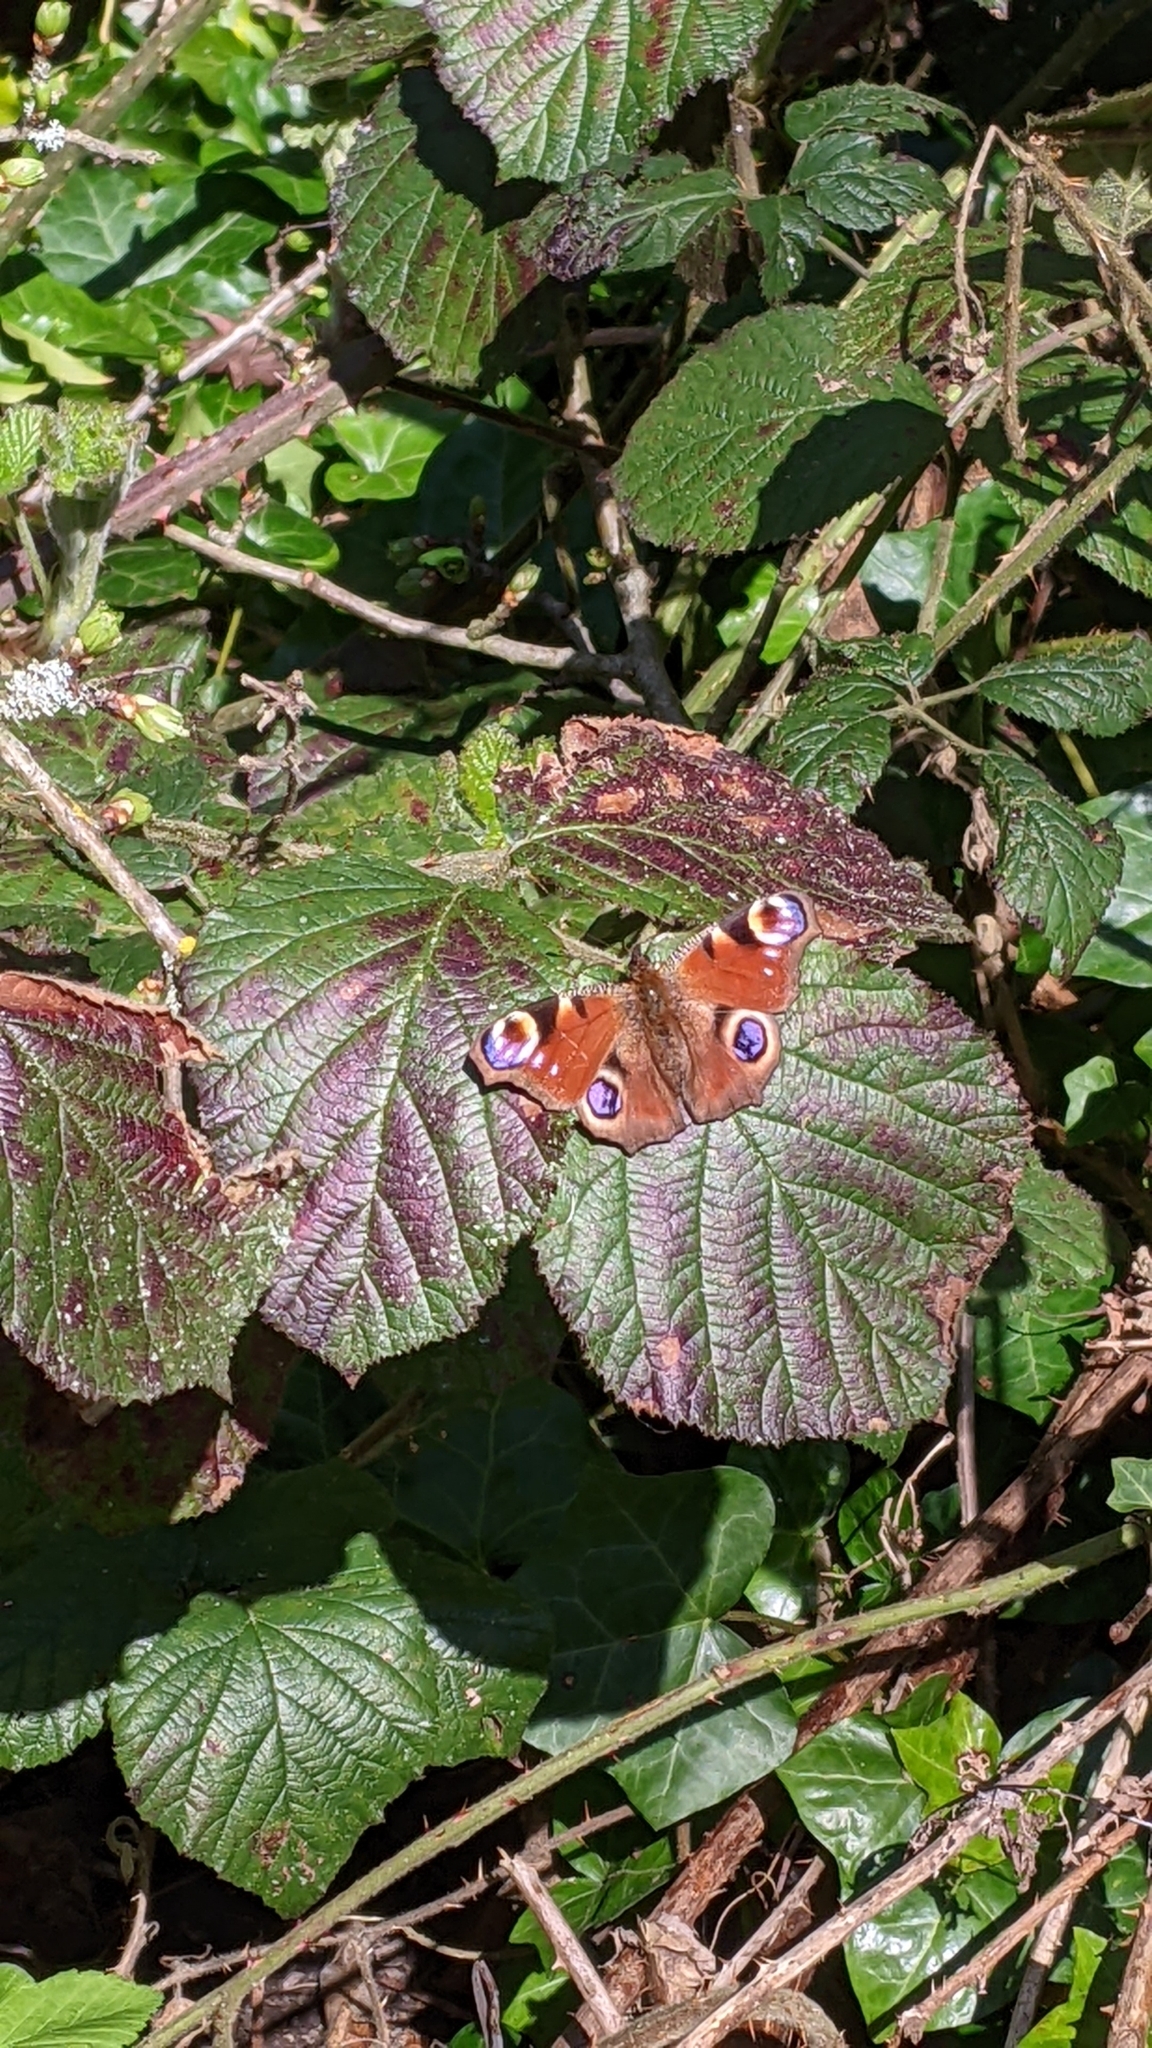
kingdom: Animalia
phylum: Arthropoda
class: Insecta
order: Lepidoptera
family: Nymphalidae
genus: Aglais
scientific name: Aglais io
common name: Peacock
